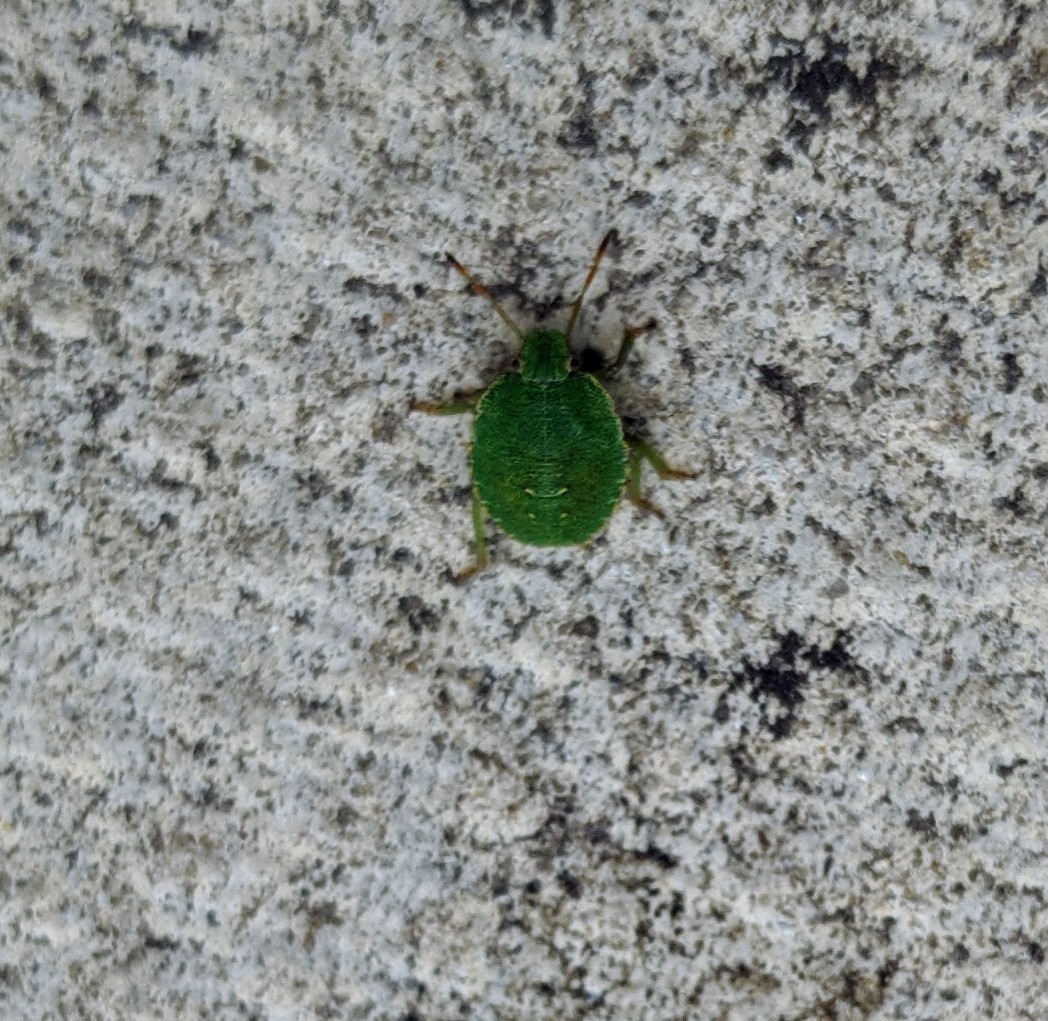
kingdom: Animalia
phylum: Arthropoda
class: Insecta
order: Hemiptera
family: Pentatomidae
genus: Palomena
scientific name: Palomena prasina
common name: Green shieldbug
